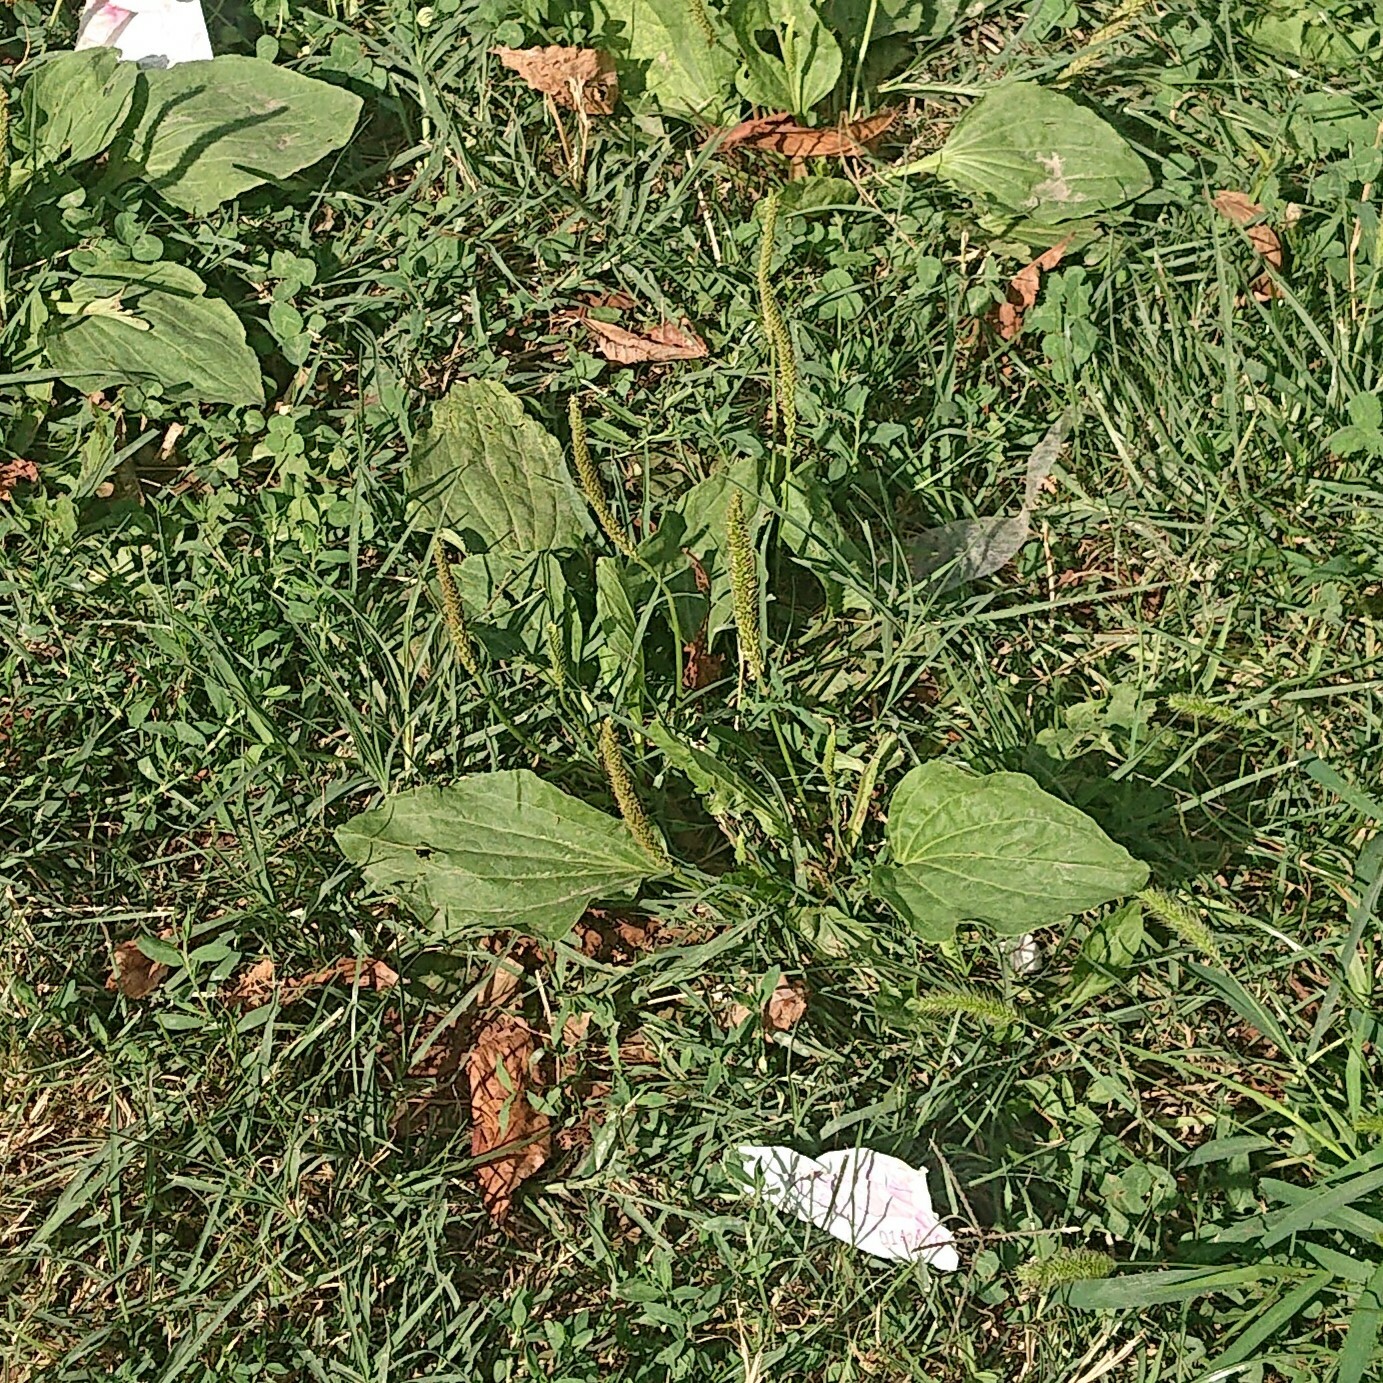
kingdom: Plantae
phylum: Tracheophyta
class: Magnoliopsida
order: Lamiales
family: Plantaginaceae
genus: Plantago
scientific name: Plantago major
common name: Common plantain
